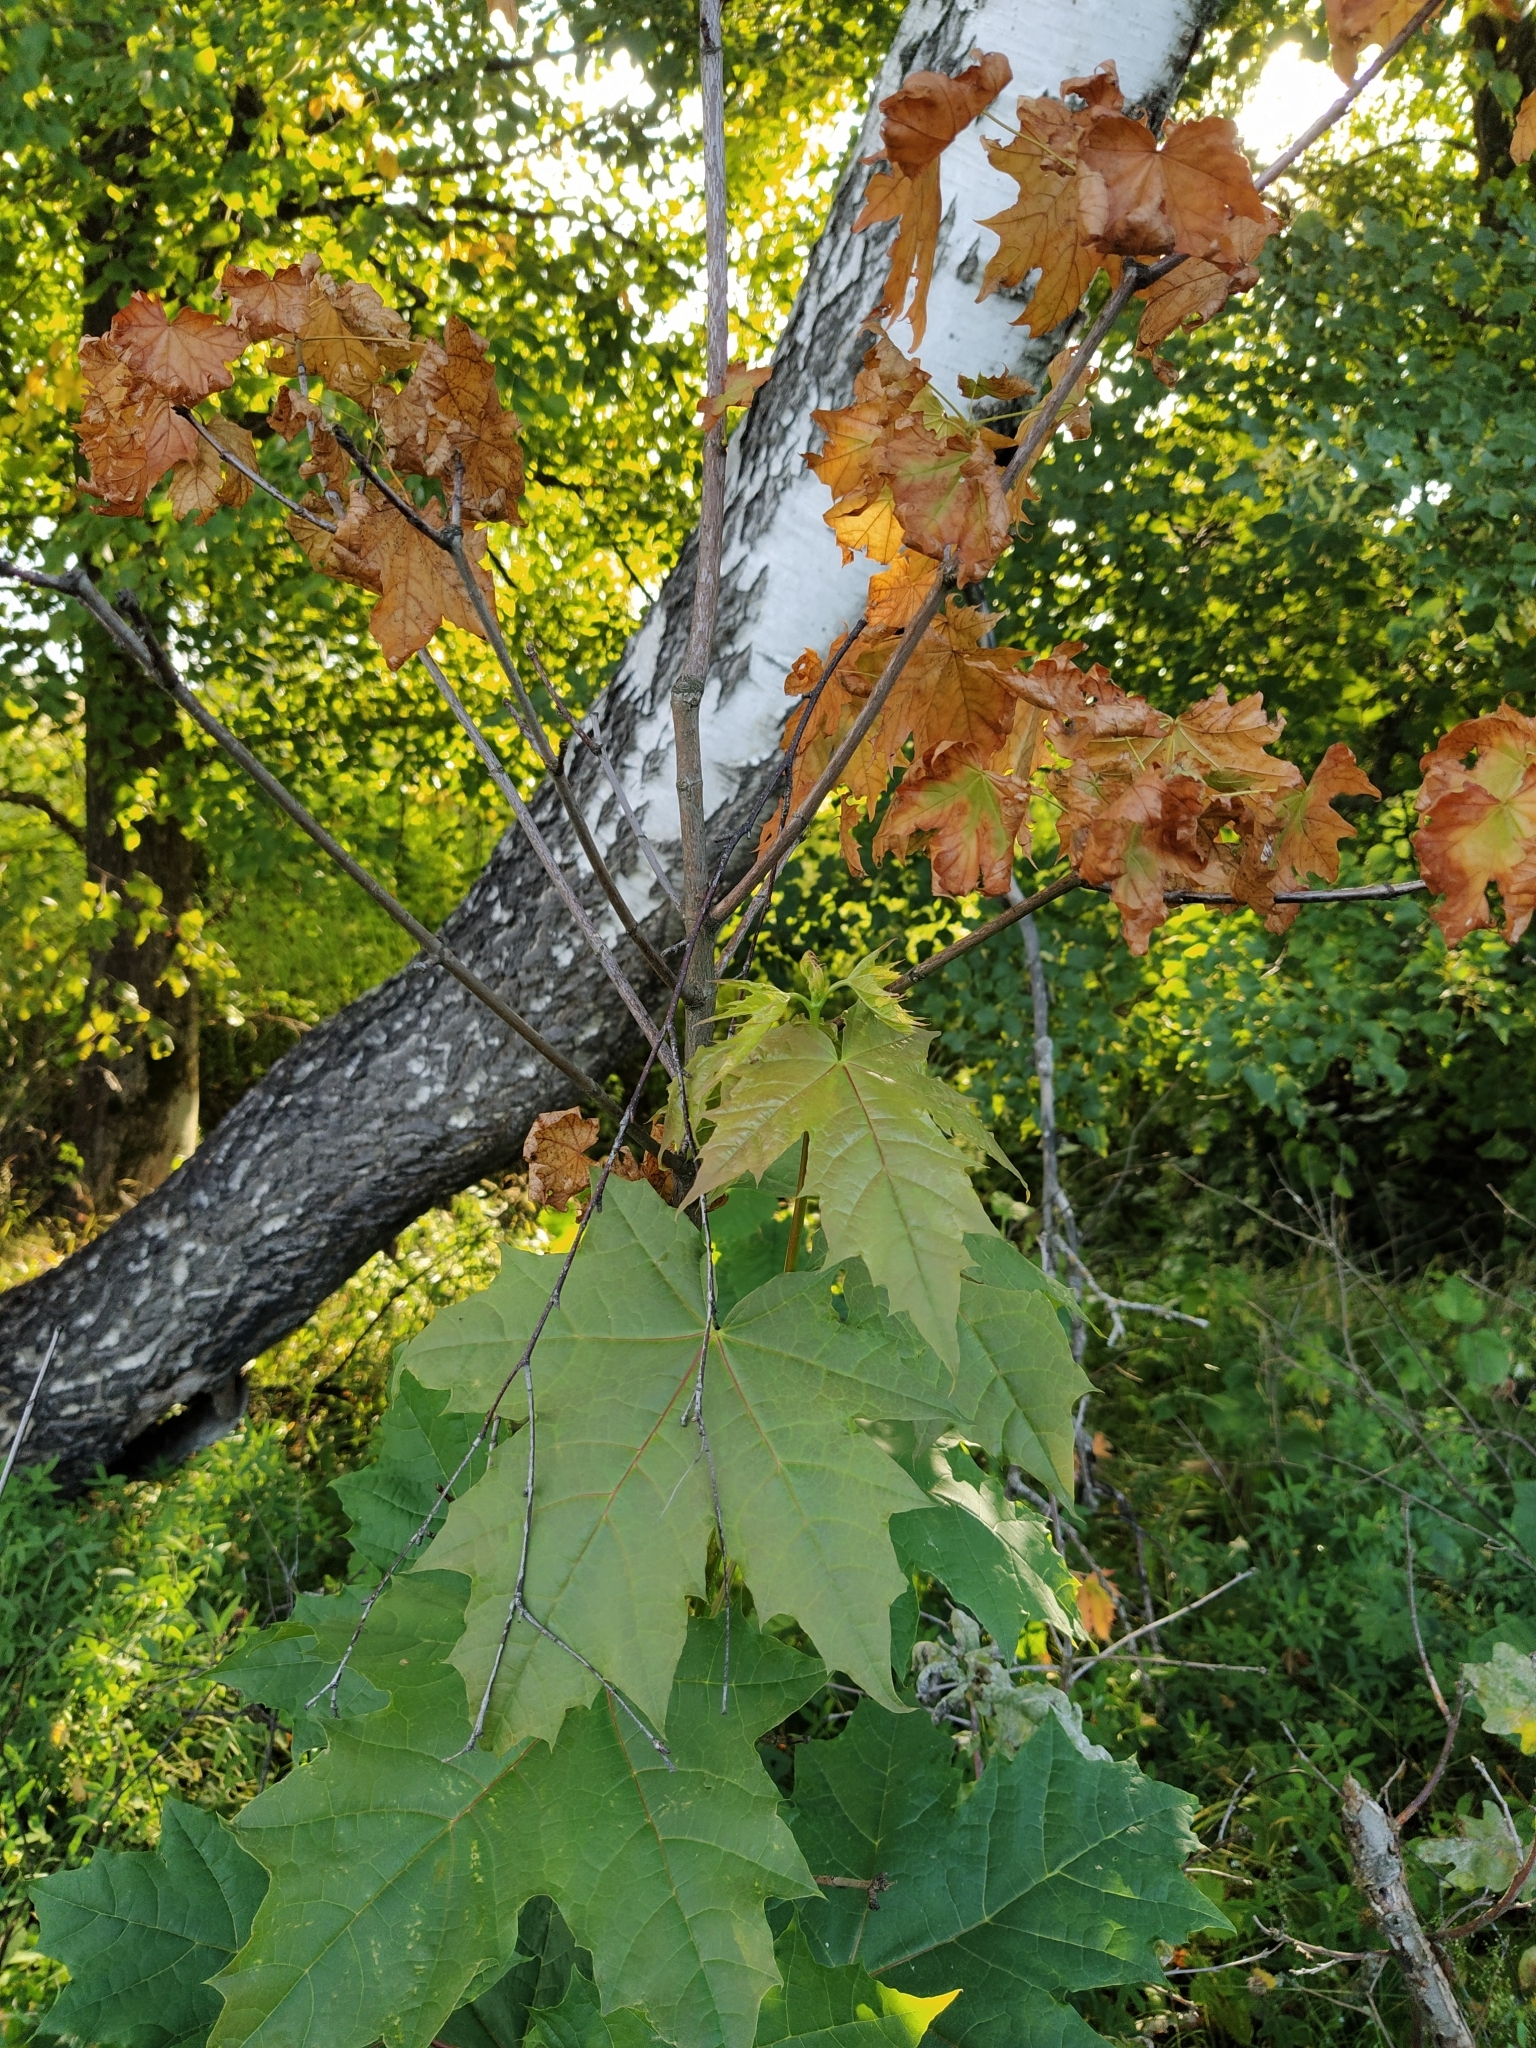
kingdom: Plantae
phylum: Tracheophyta
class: Magnoliopsida
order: Sapindales
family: Sapindaceae
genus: Acer
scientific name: Acer platanoides
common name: Norway maple
